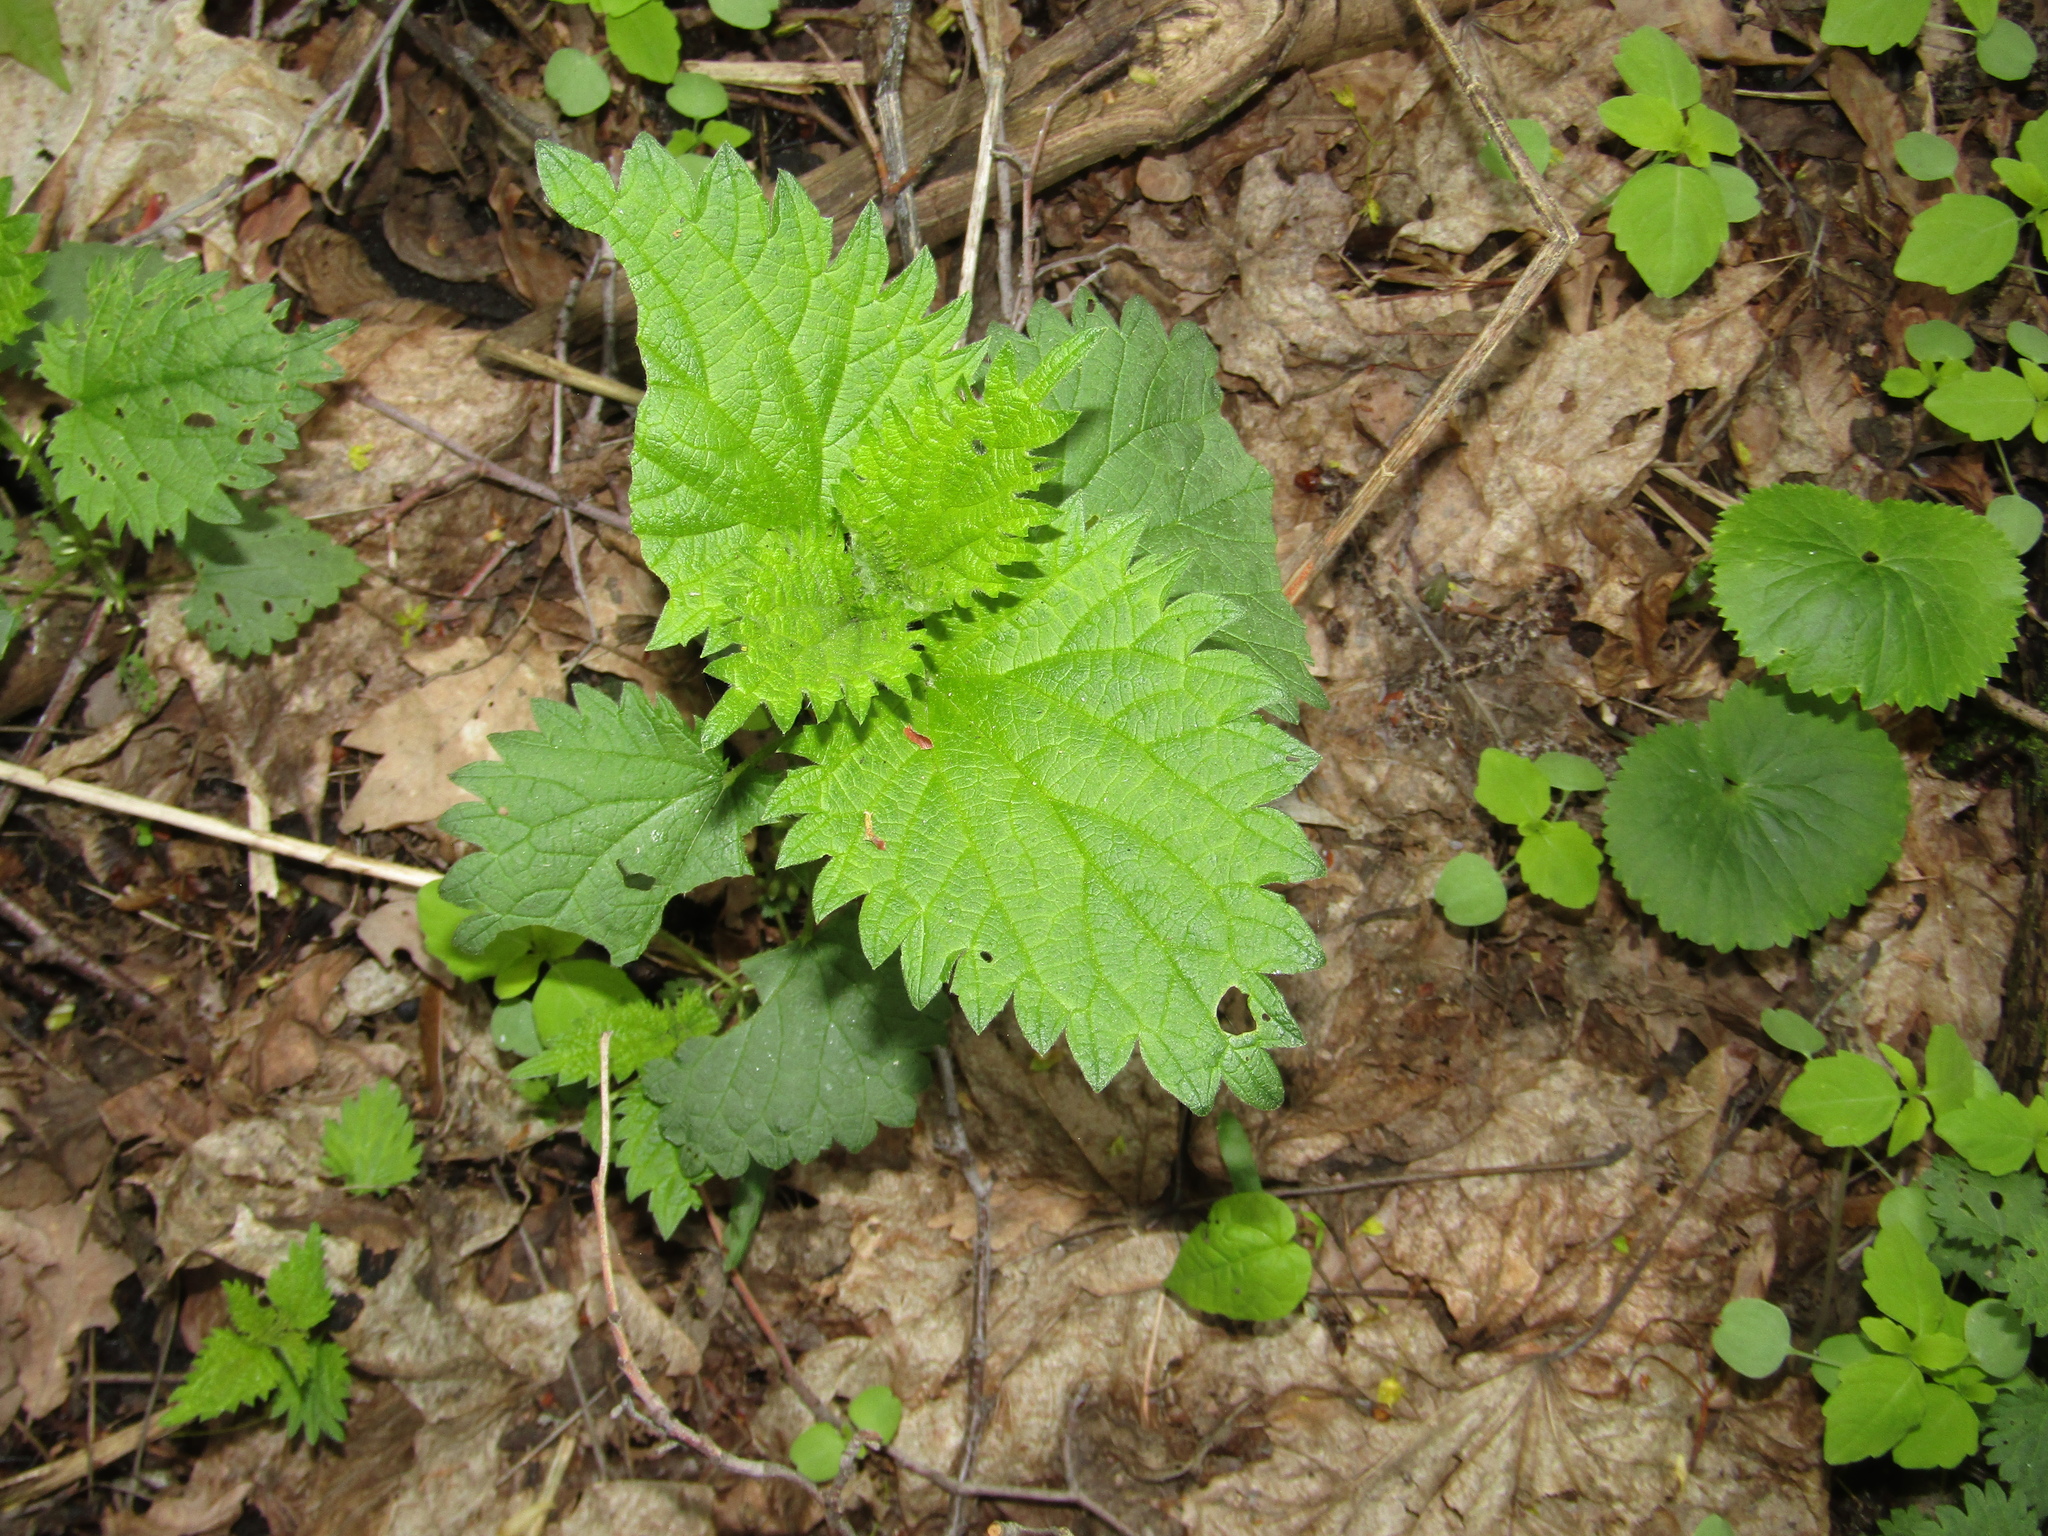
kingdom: Plantae
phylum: Tracheophyta
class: Magnoliopsida
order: Rosales
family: Urticaceae
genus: Urtica
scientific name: Urtica dioica
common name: Common nettle
